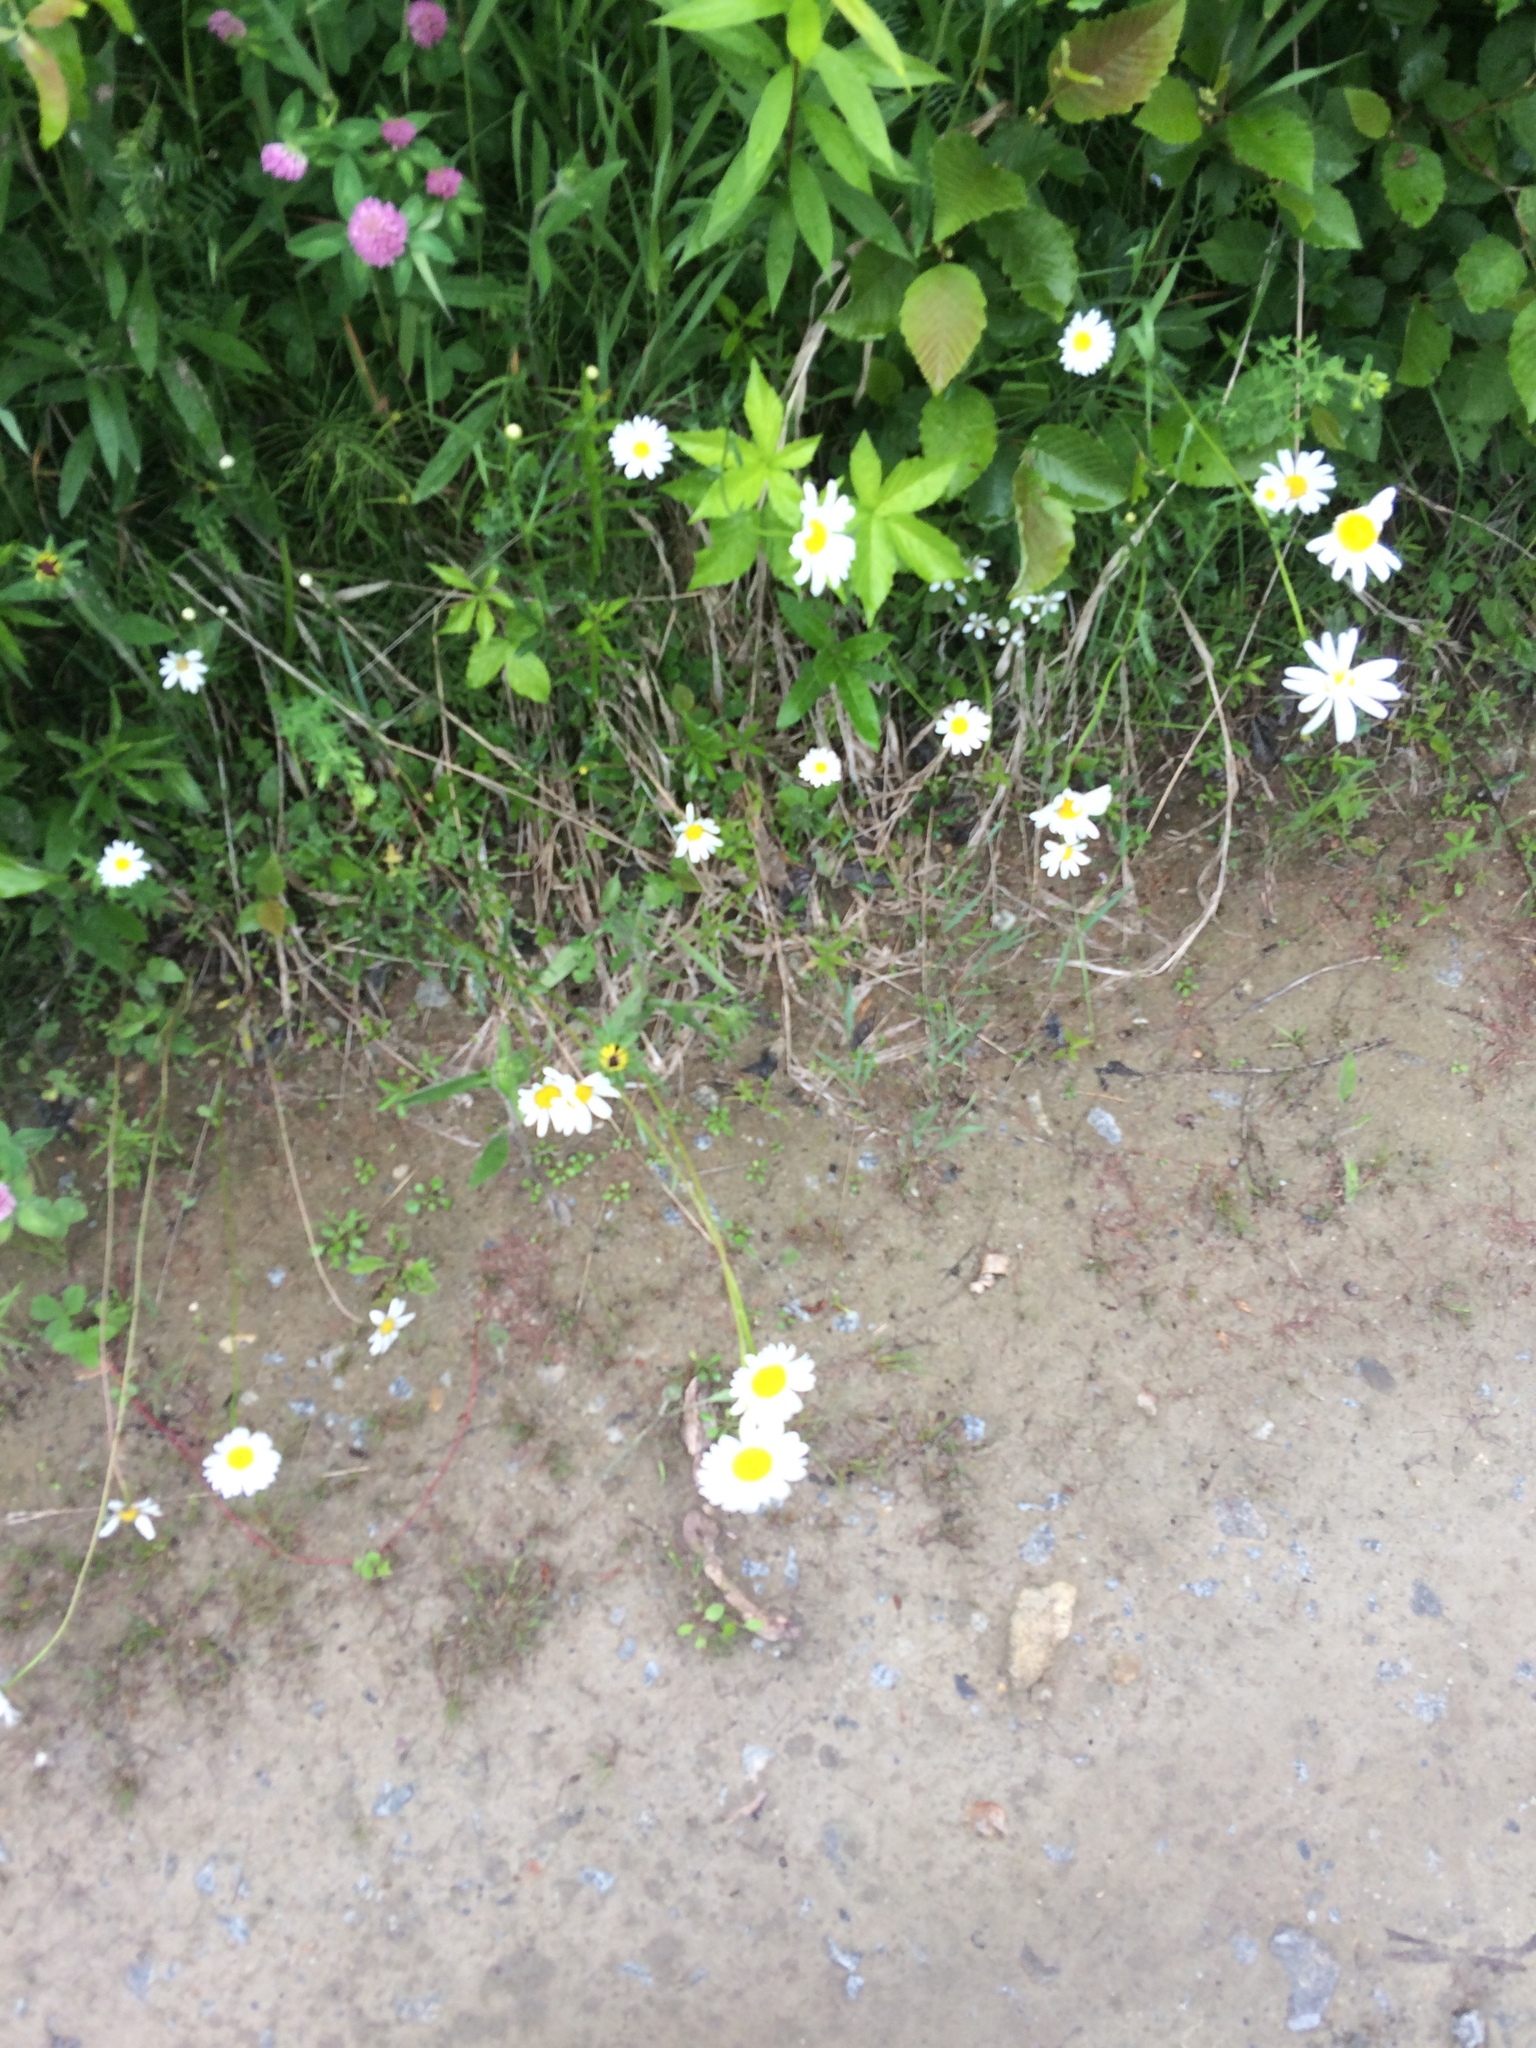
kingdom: Plantae
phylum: Tracheophyta
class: Magnoliopsida
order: Asterales
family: Asteraceae
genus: Leucanthemum
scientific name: Leucanthemum vulgare
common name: Oxeye daisy
